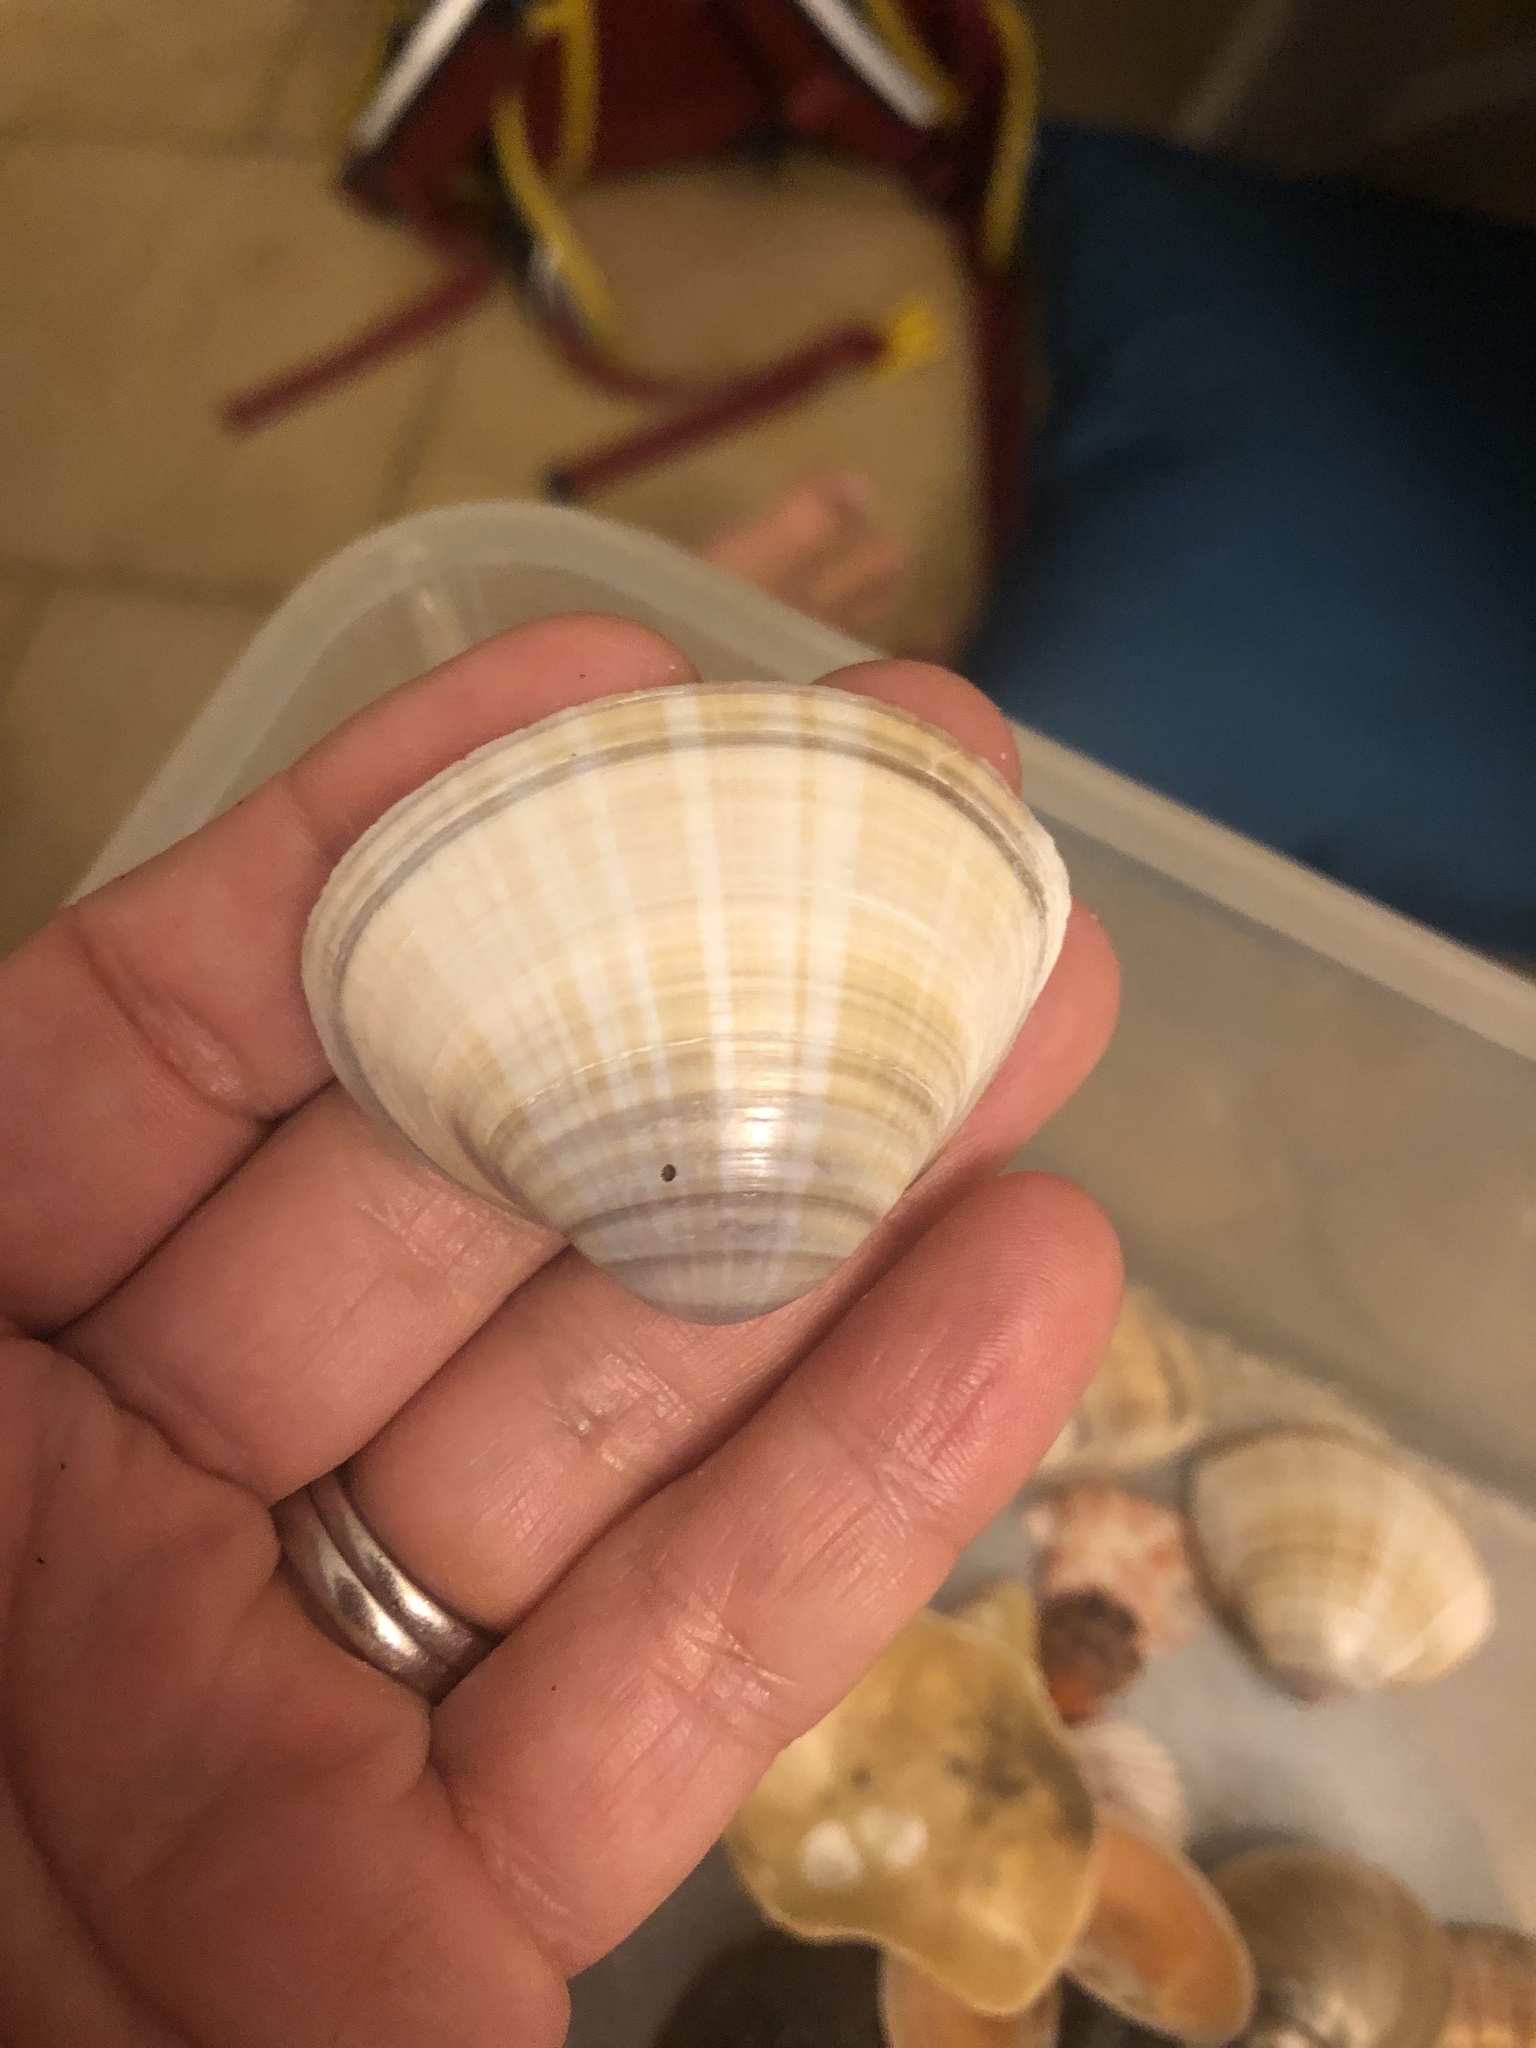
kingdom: Animalia
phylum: Mollusca
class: Bivalvia
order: Venerida
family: Mactridae
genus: Mactra
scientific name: Mactra stultorum
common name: Rayed trough shell
